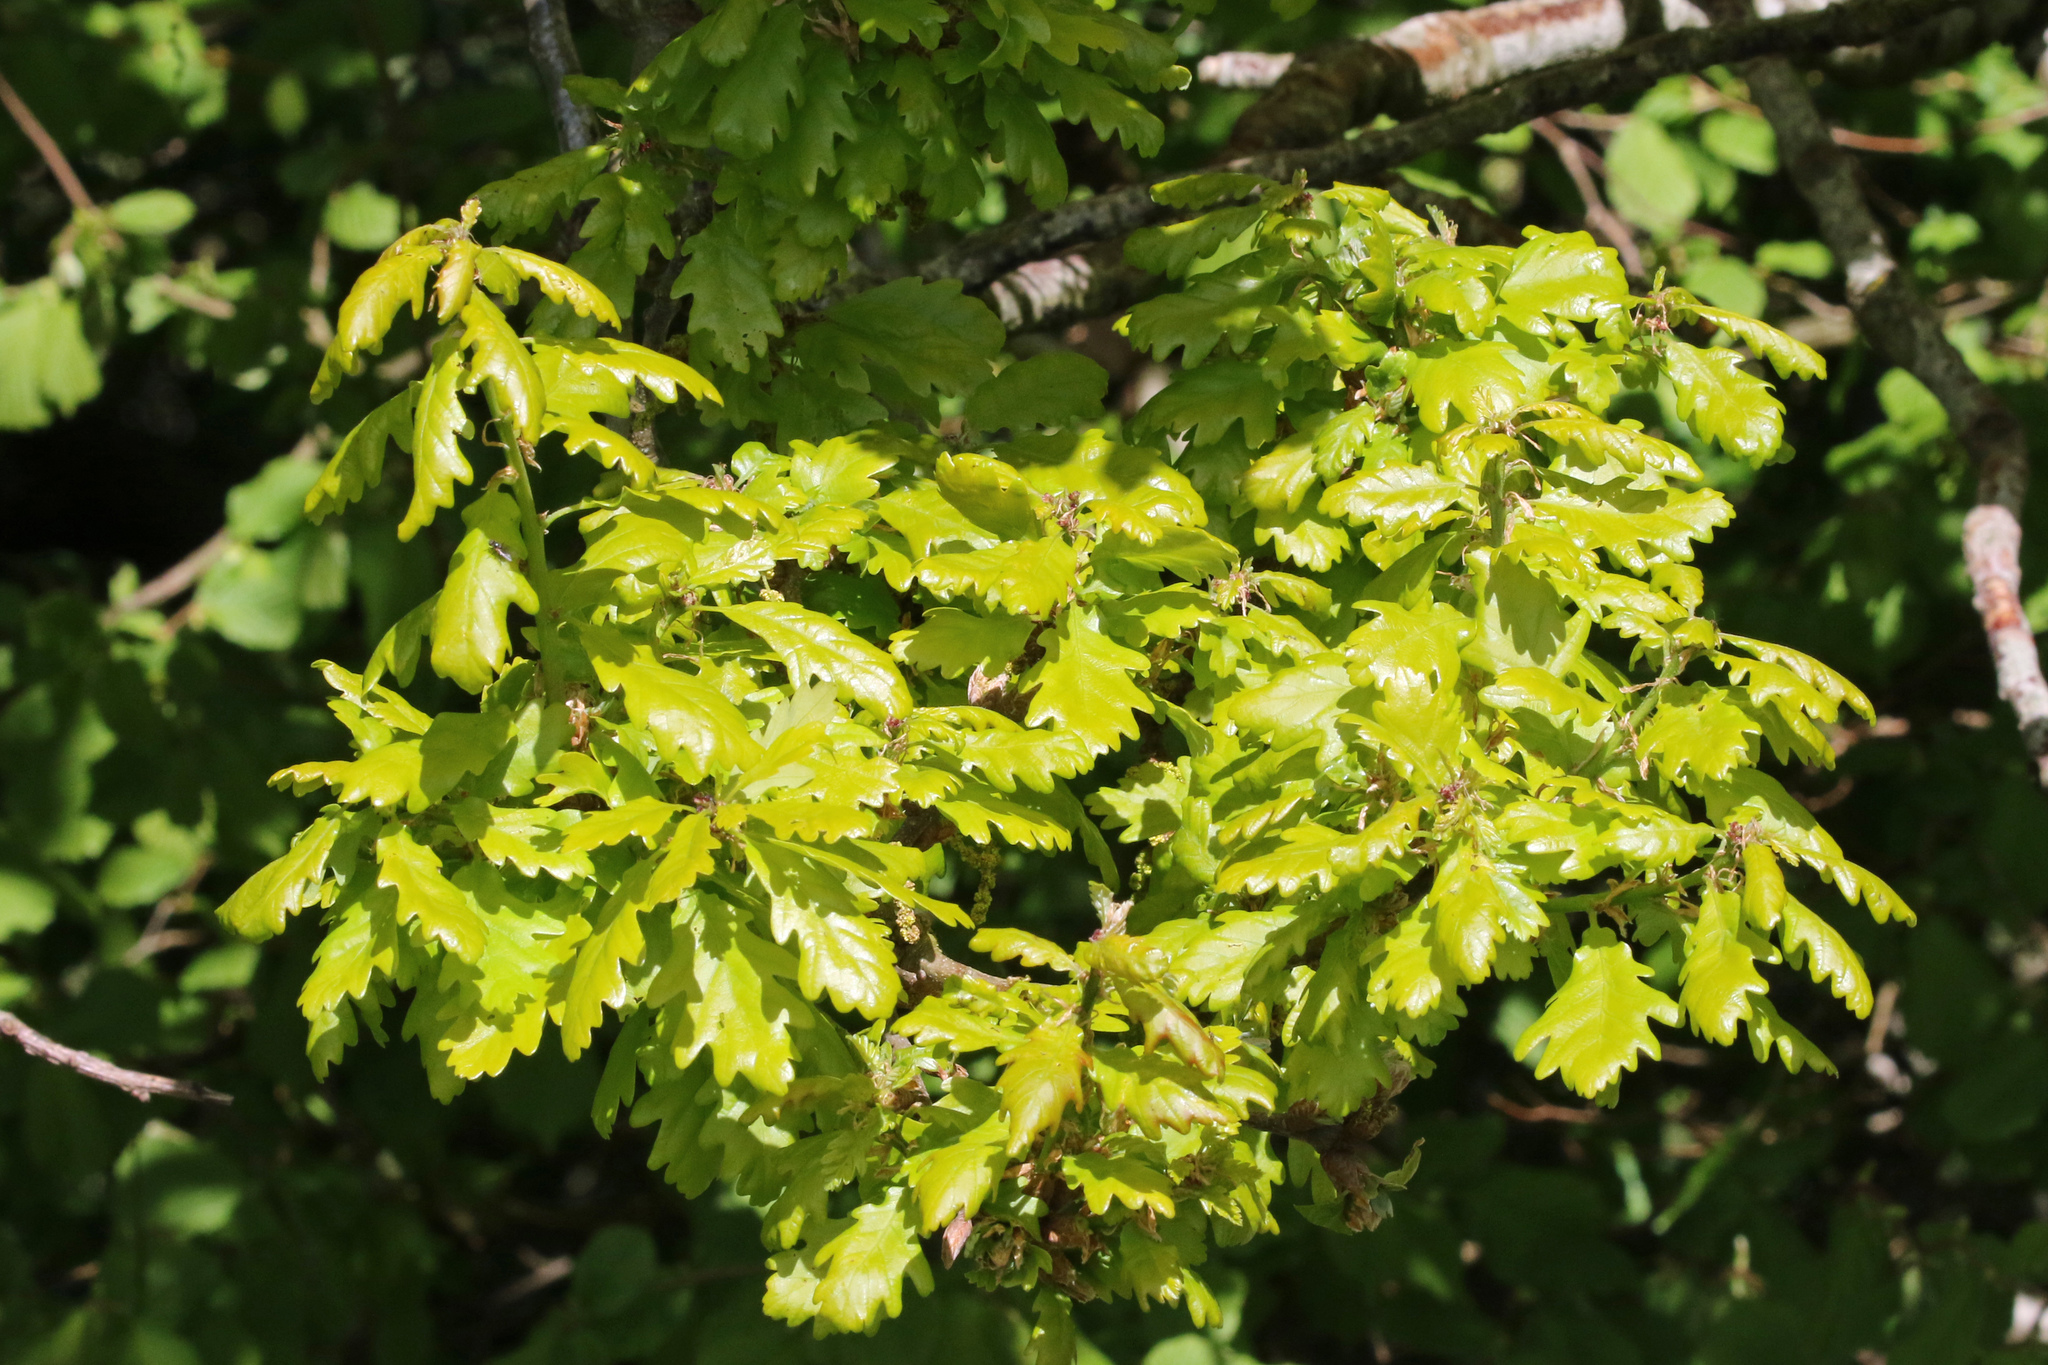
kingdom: Plantae
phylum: Tracheophyta
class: Magnoliopsida
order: Fagales
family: Fagaceae
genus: Quercus
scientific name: Quercus robur
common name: Pedunculate oak
